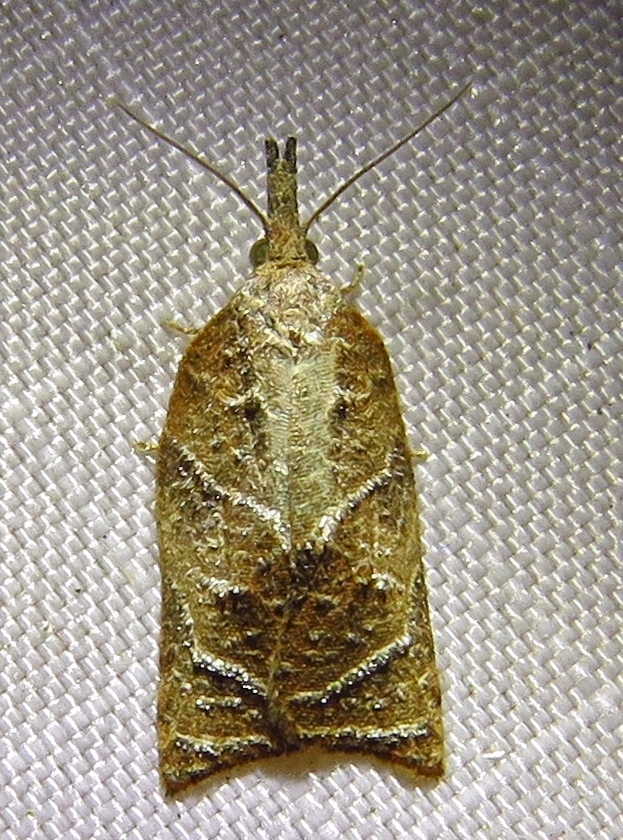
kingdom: Animalia
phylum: Arthropoda
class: Insecta
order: Lepidoptera
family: Tortricidae
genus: Platynota
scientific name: Platynota rostrana
